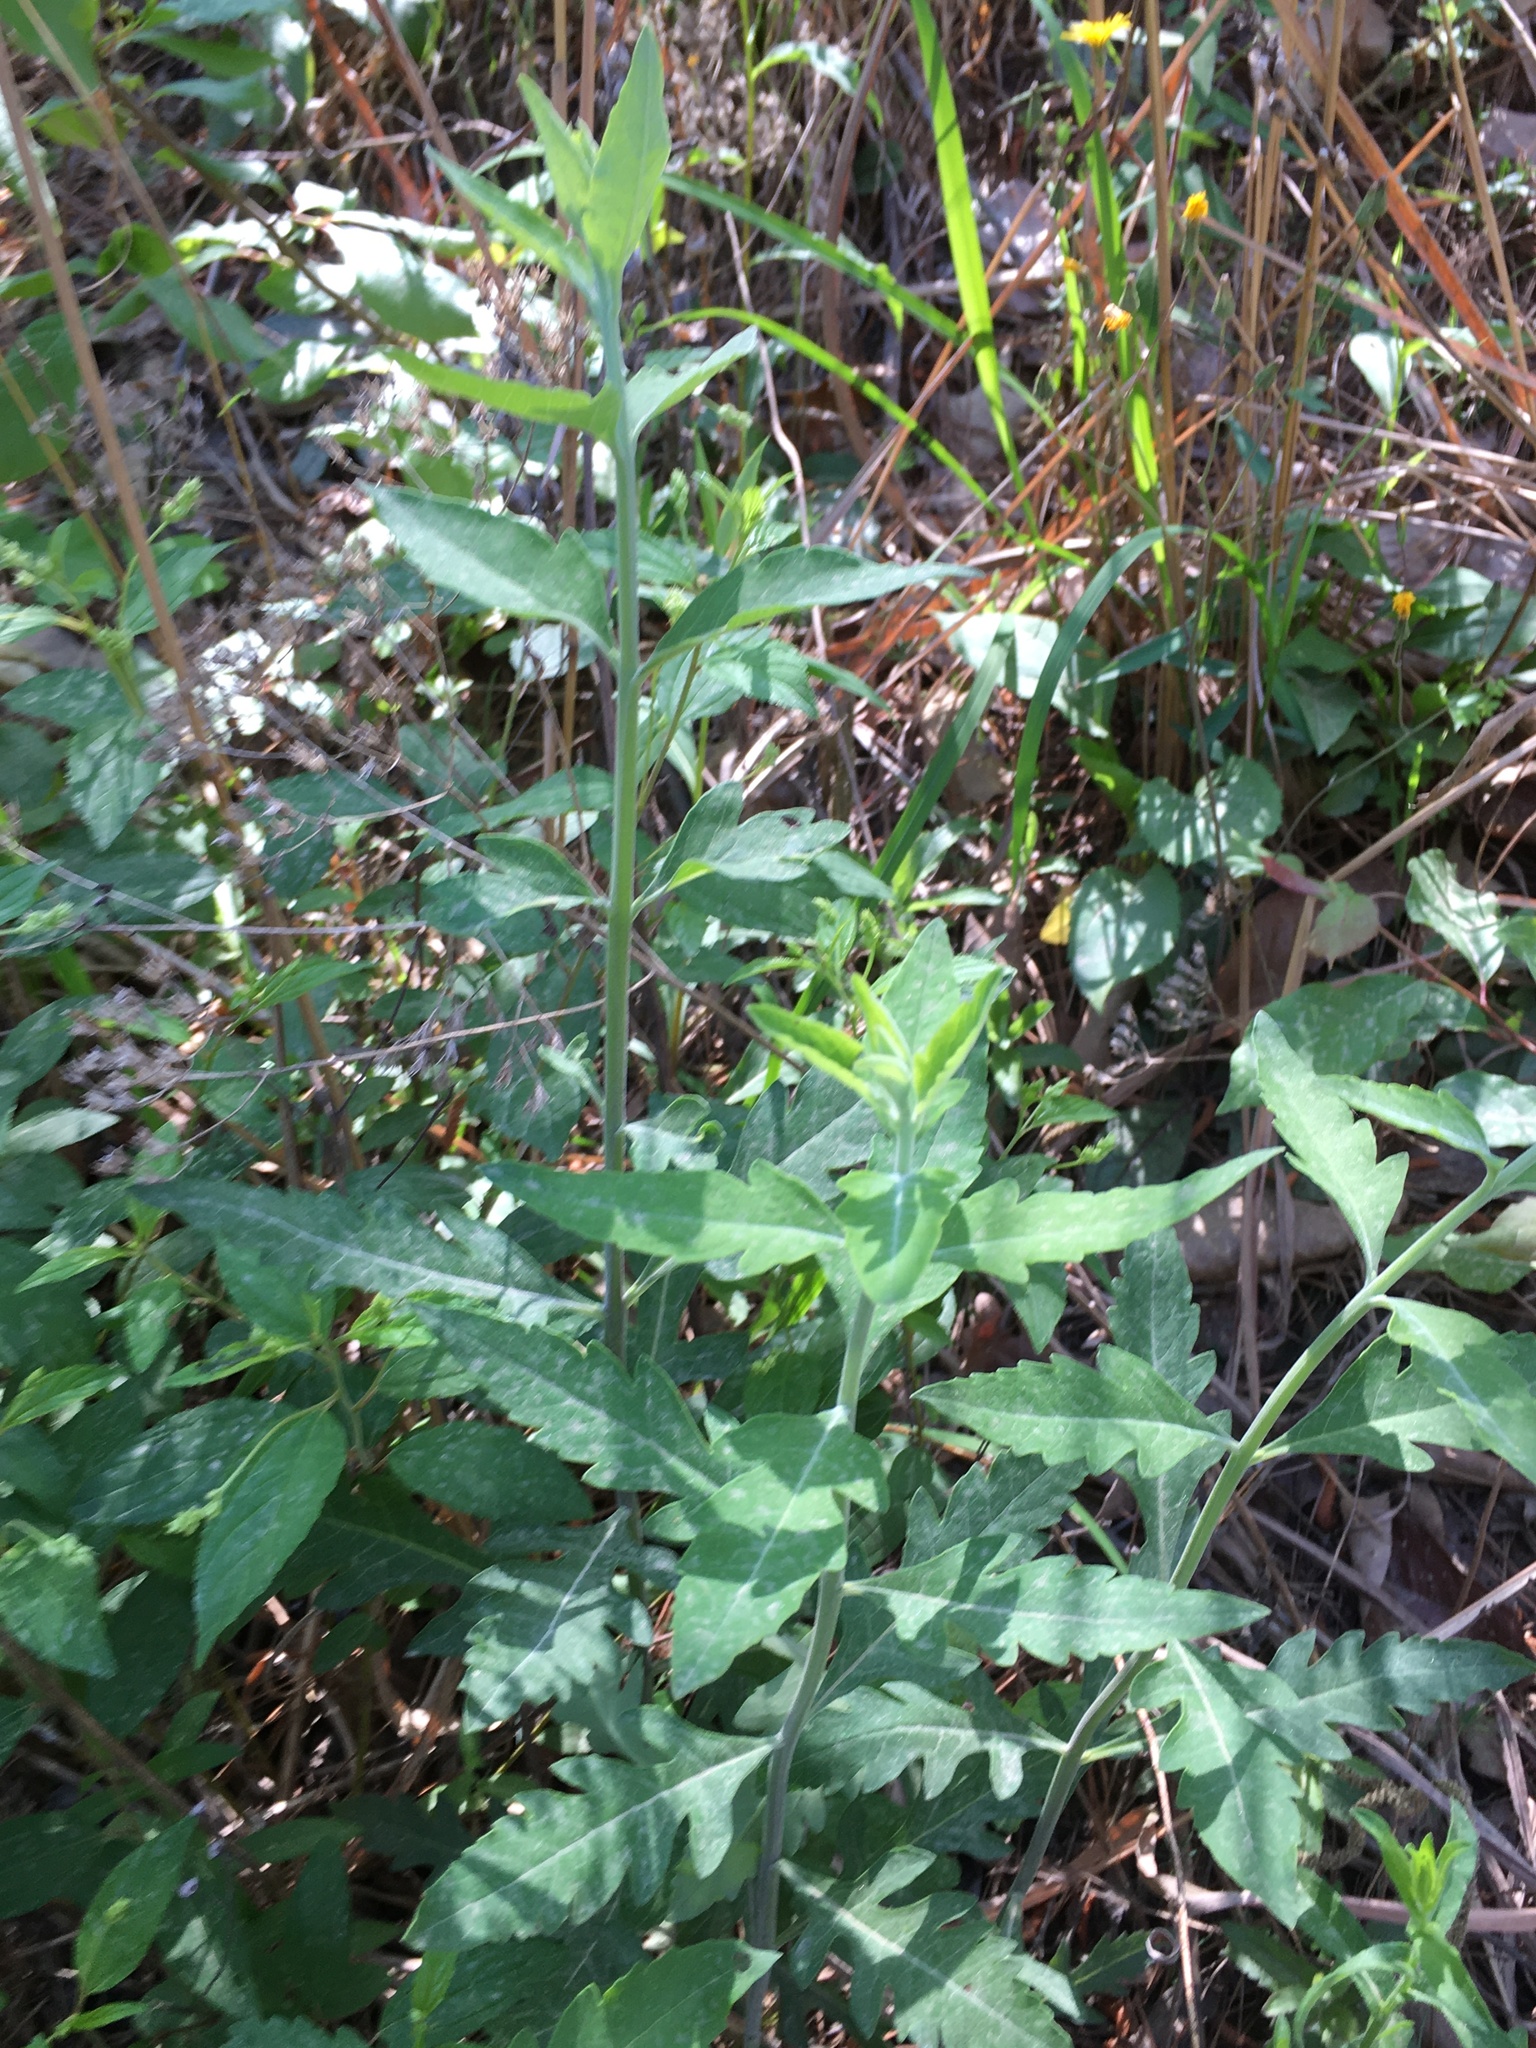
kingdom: Plantae
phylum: Tracheophyta
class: Magnoliopsida
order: Lamiales
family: Orobanchaceae
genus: Aureolaria
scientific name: Aureolaria virginica
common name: Downy false foxglove
